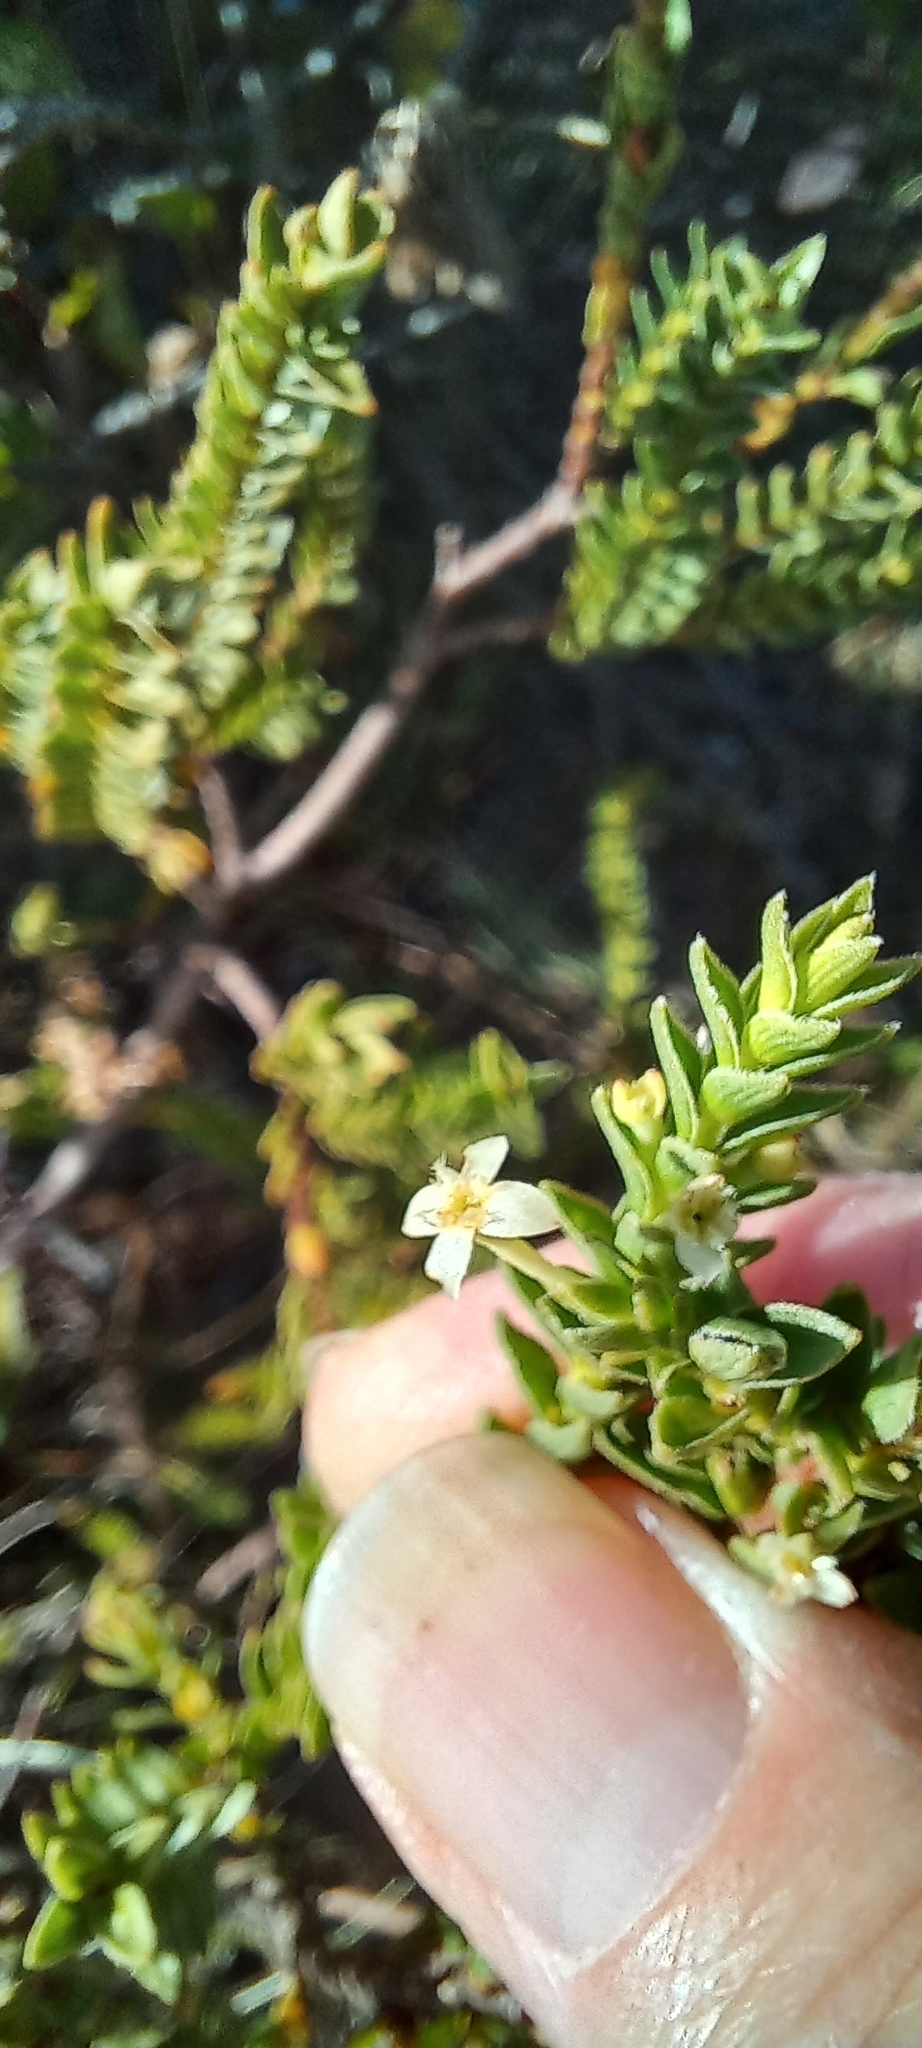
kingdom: Plantae
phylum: Tracheophyta
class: Magnoliopsida
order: Malvales
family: Thymelaeaceae
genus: Struthiola
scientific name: Struthiola striata
